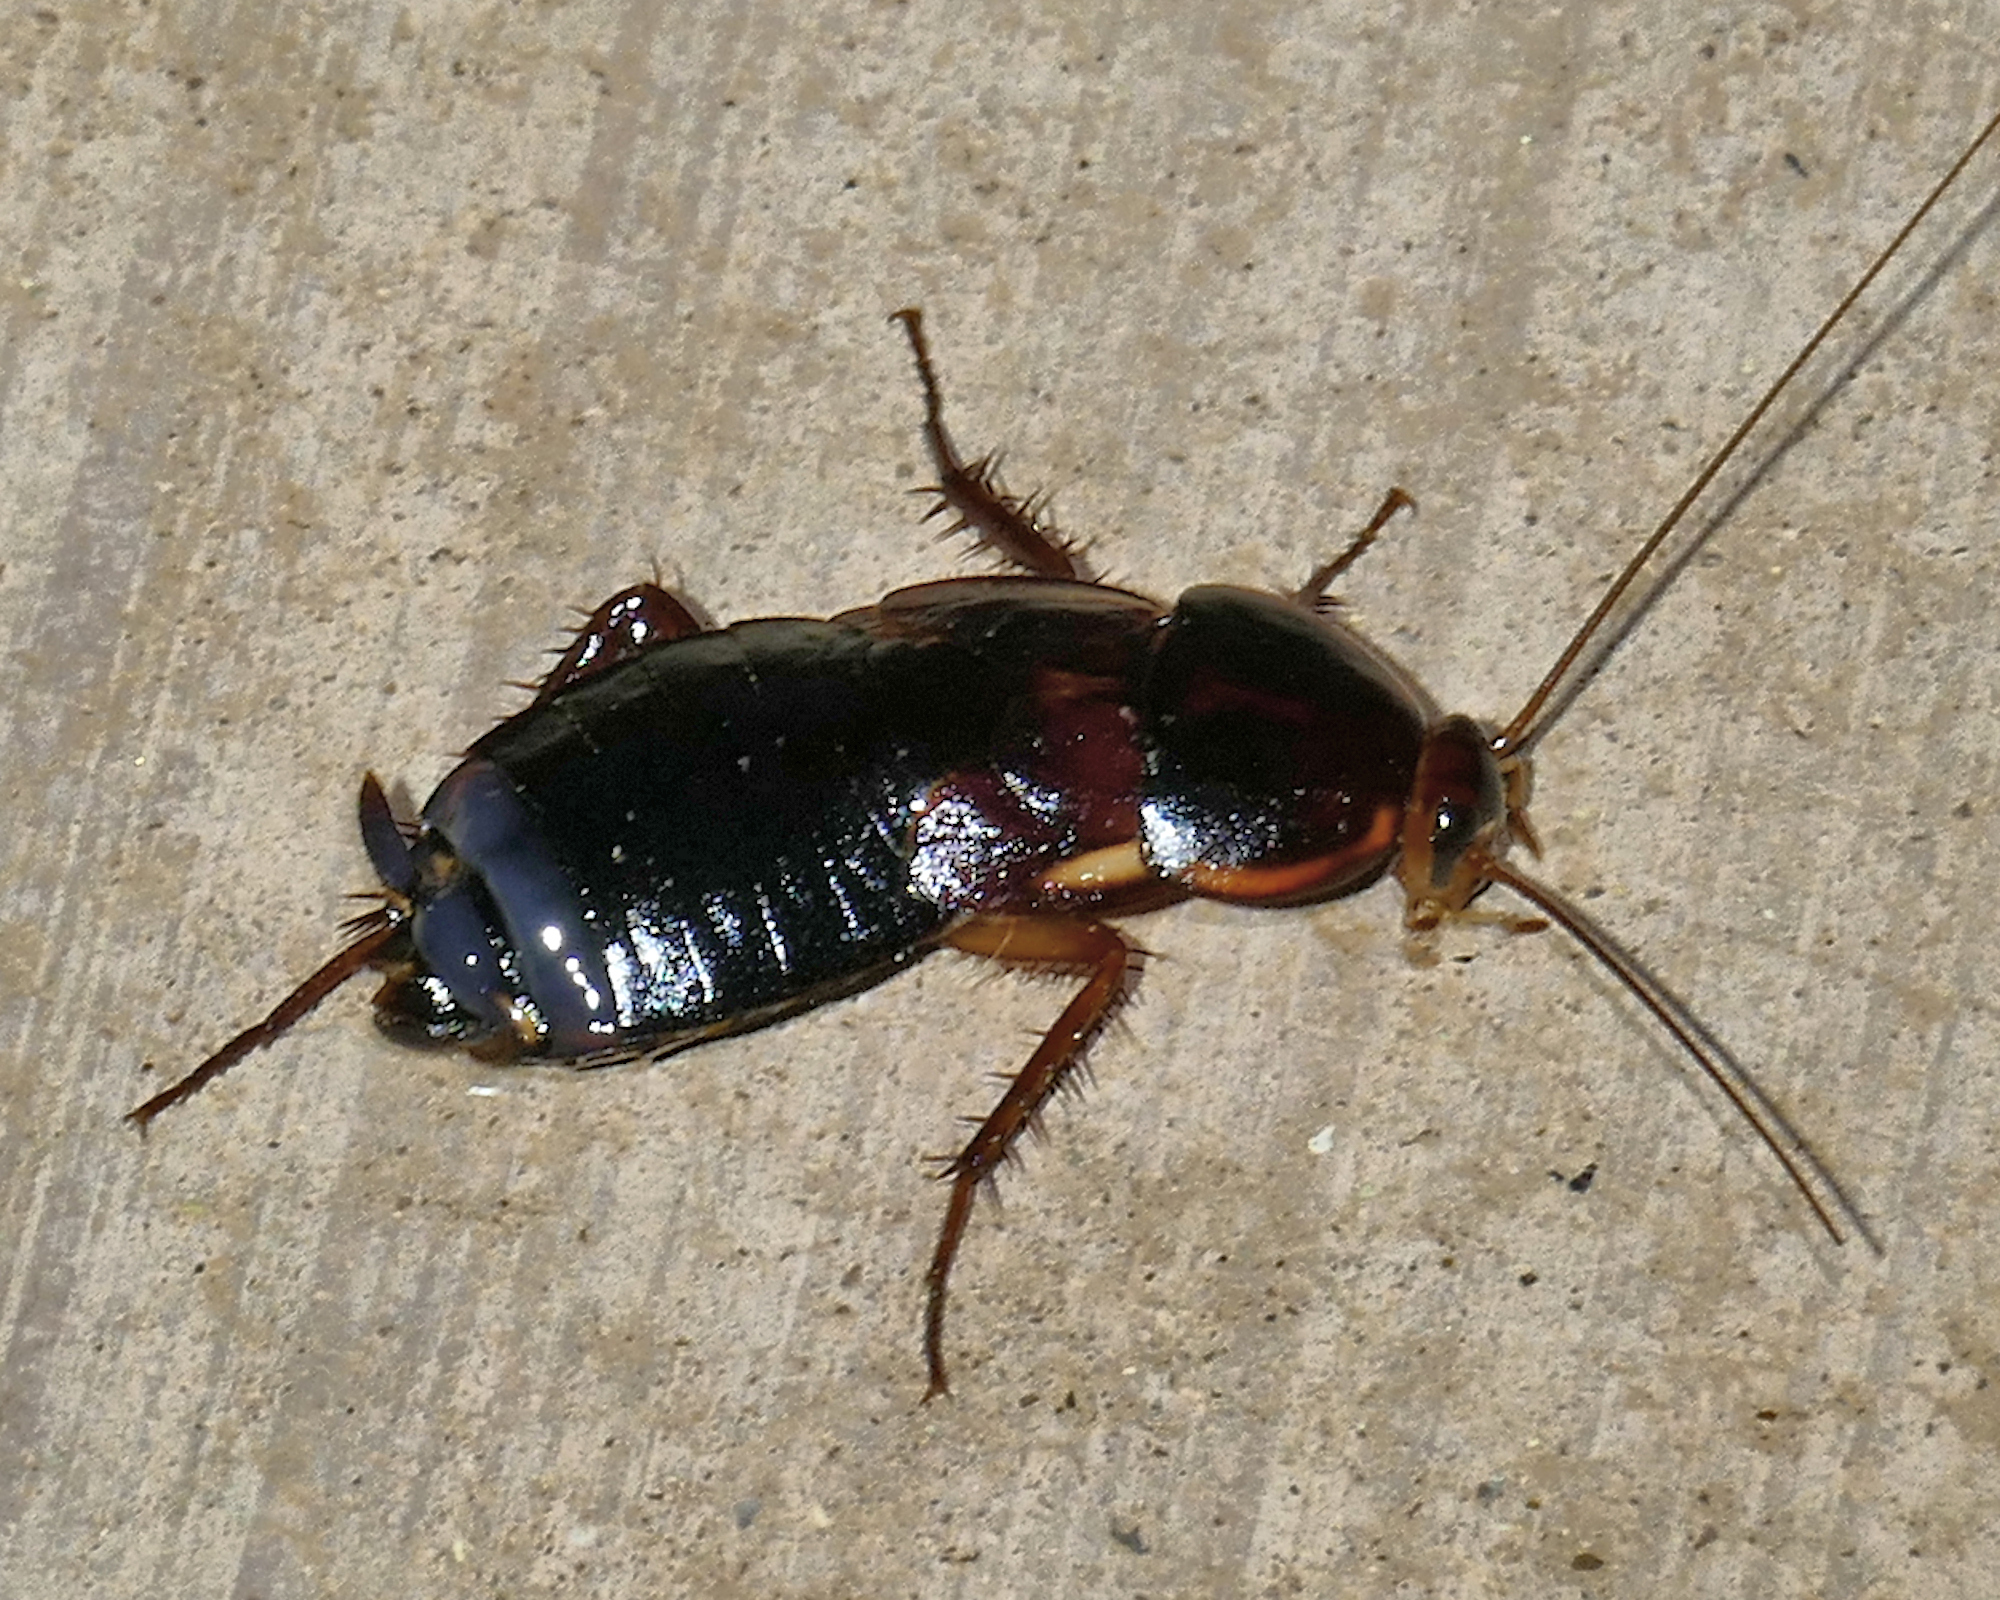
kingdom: Animalia
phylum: Arthropoda
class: Insecta
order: Blattodea
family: Blattidae
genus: Periplaneta
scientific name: Periplaneta lateralis
